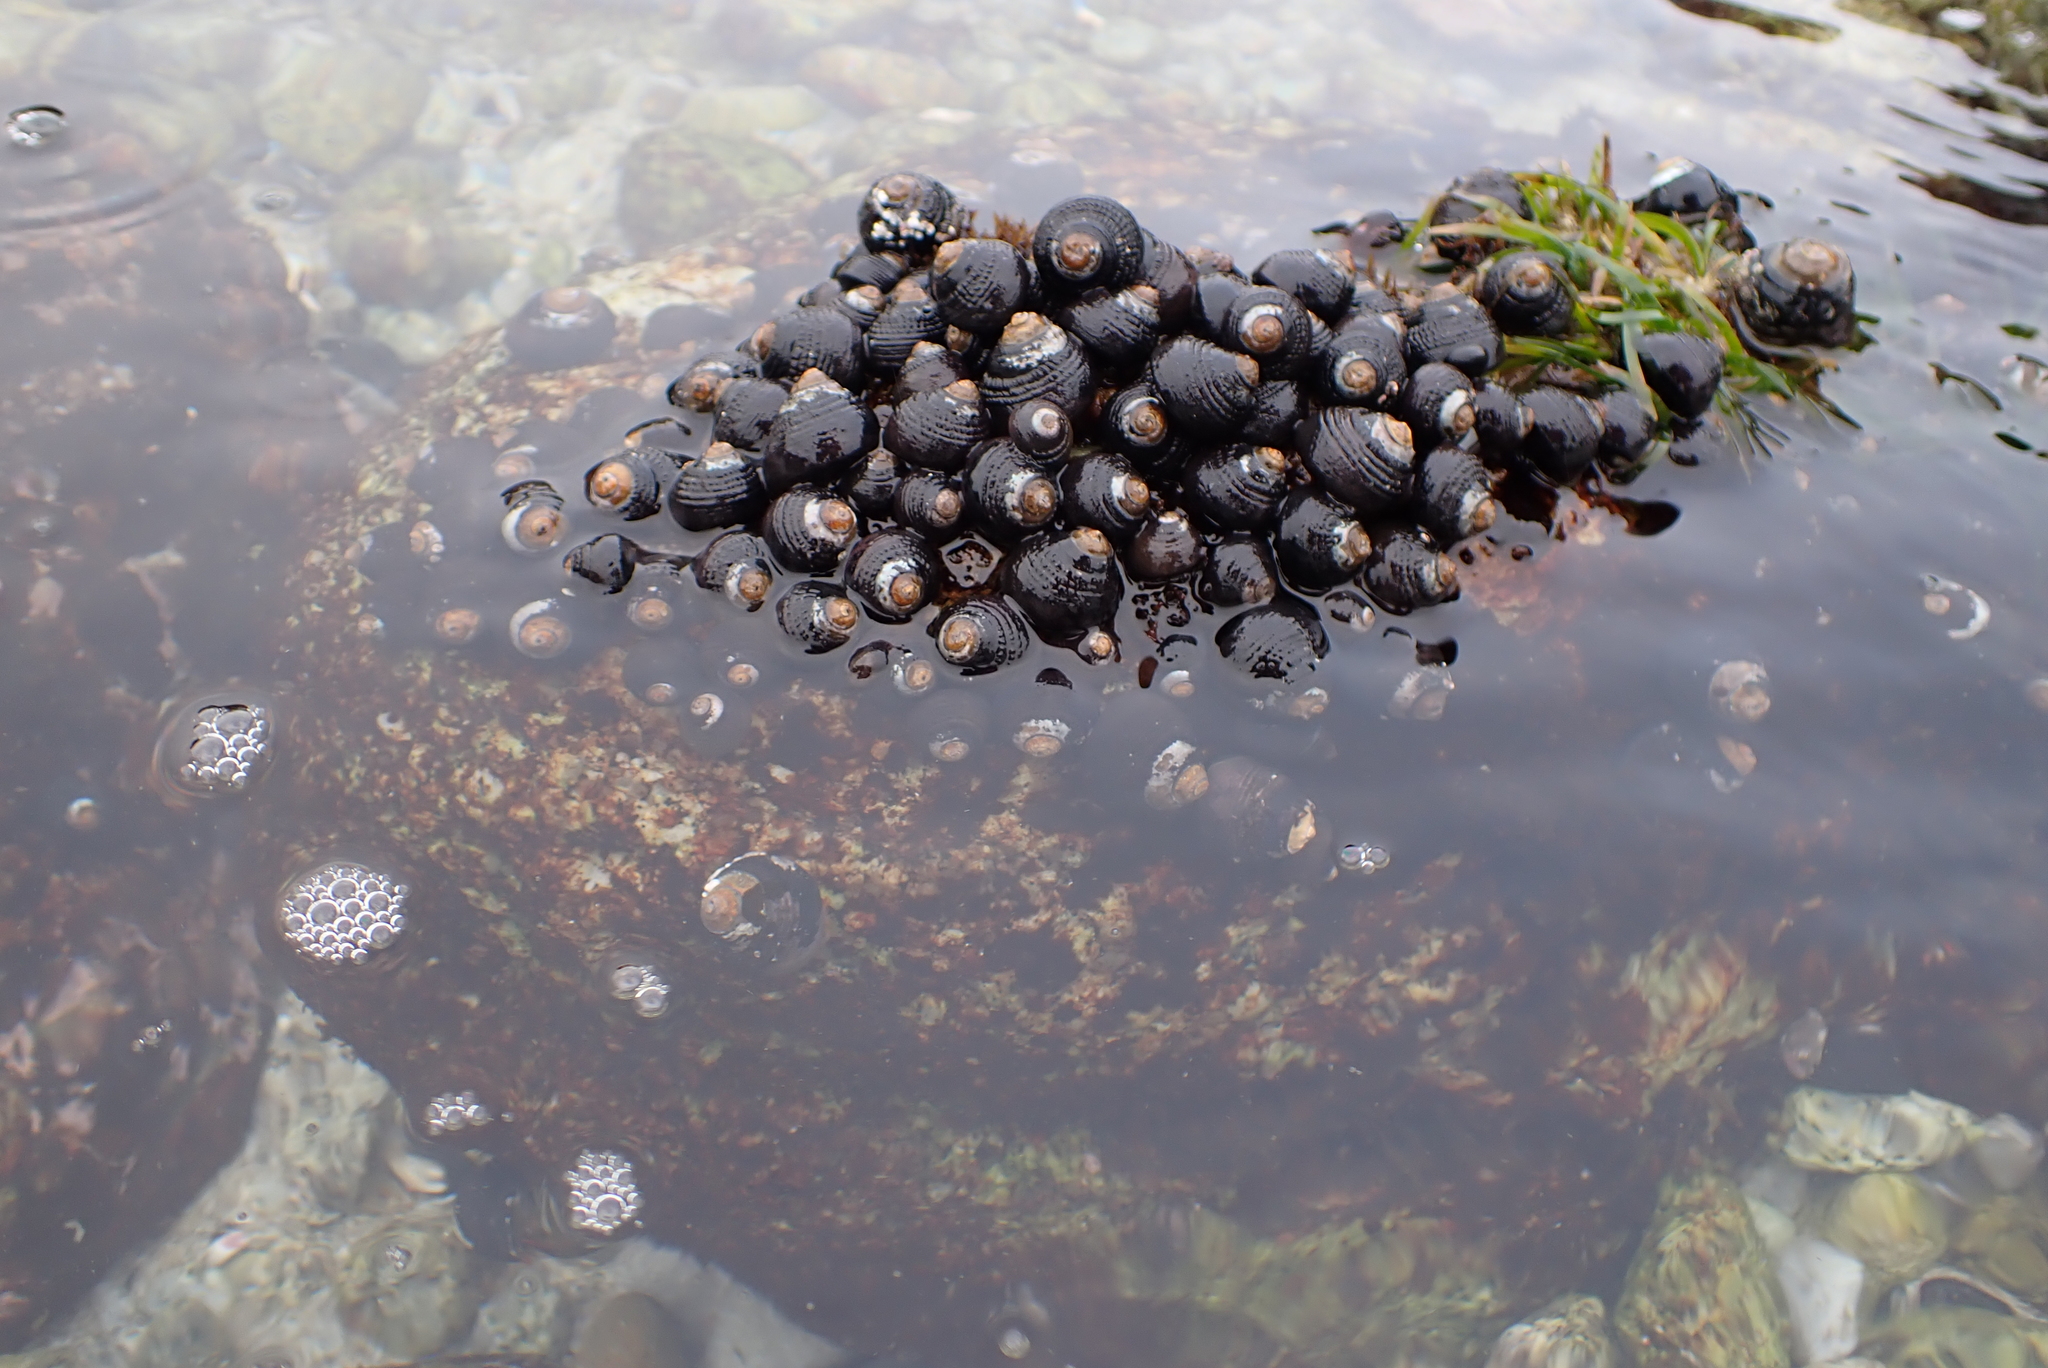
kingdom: Animalia
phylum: Mollusca
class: Gastropoda
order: Trochida
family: Tegulidae
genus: Tegula
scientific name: Tegula funebralis
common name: Black tegula
